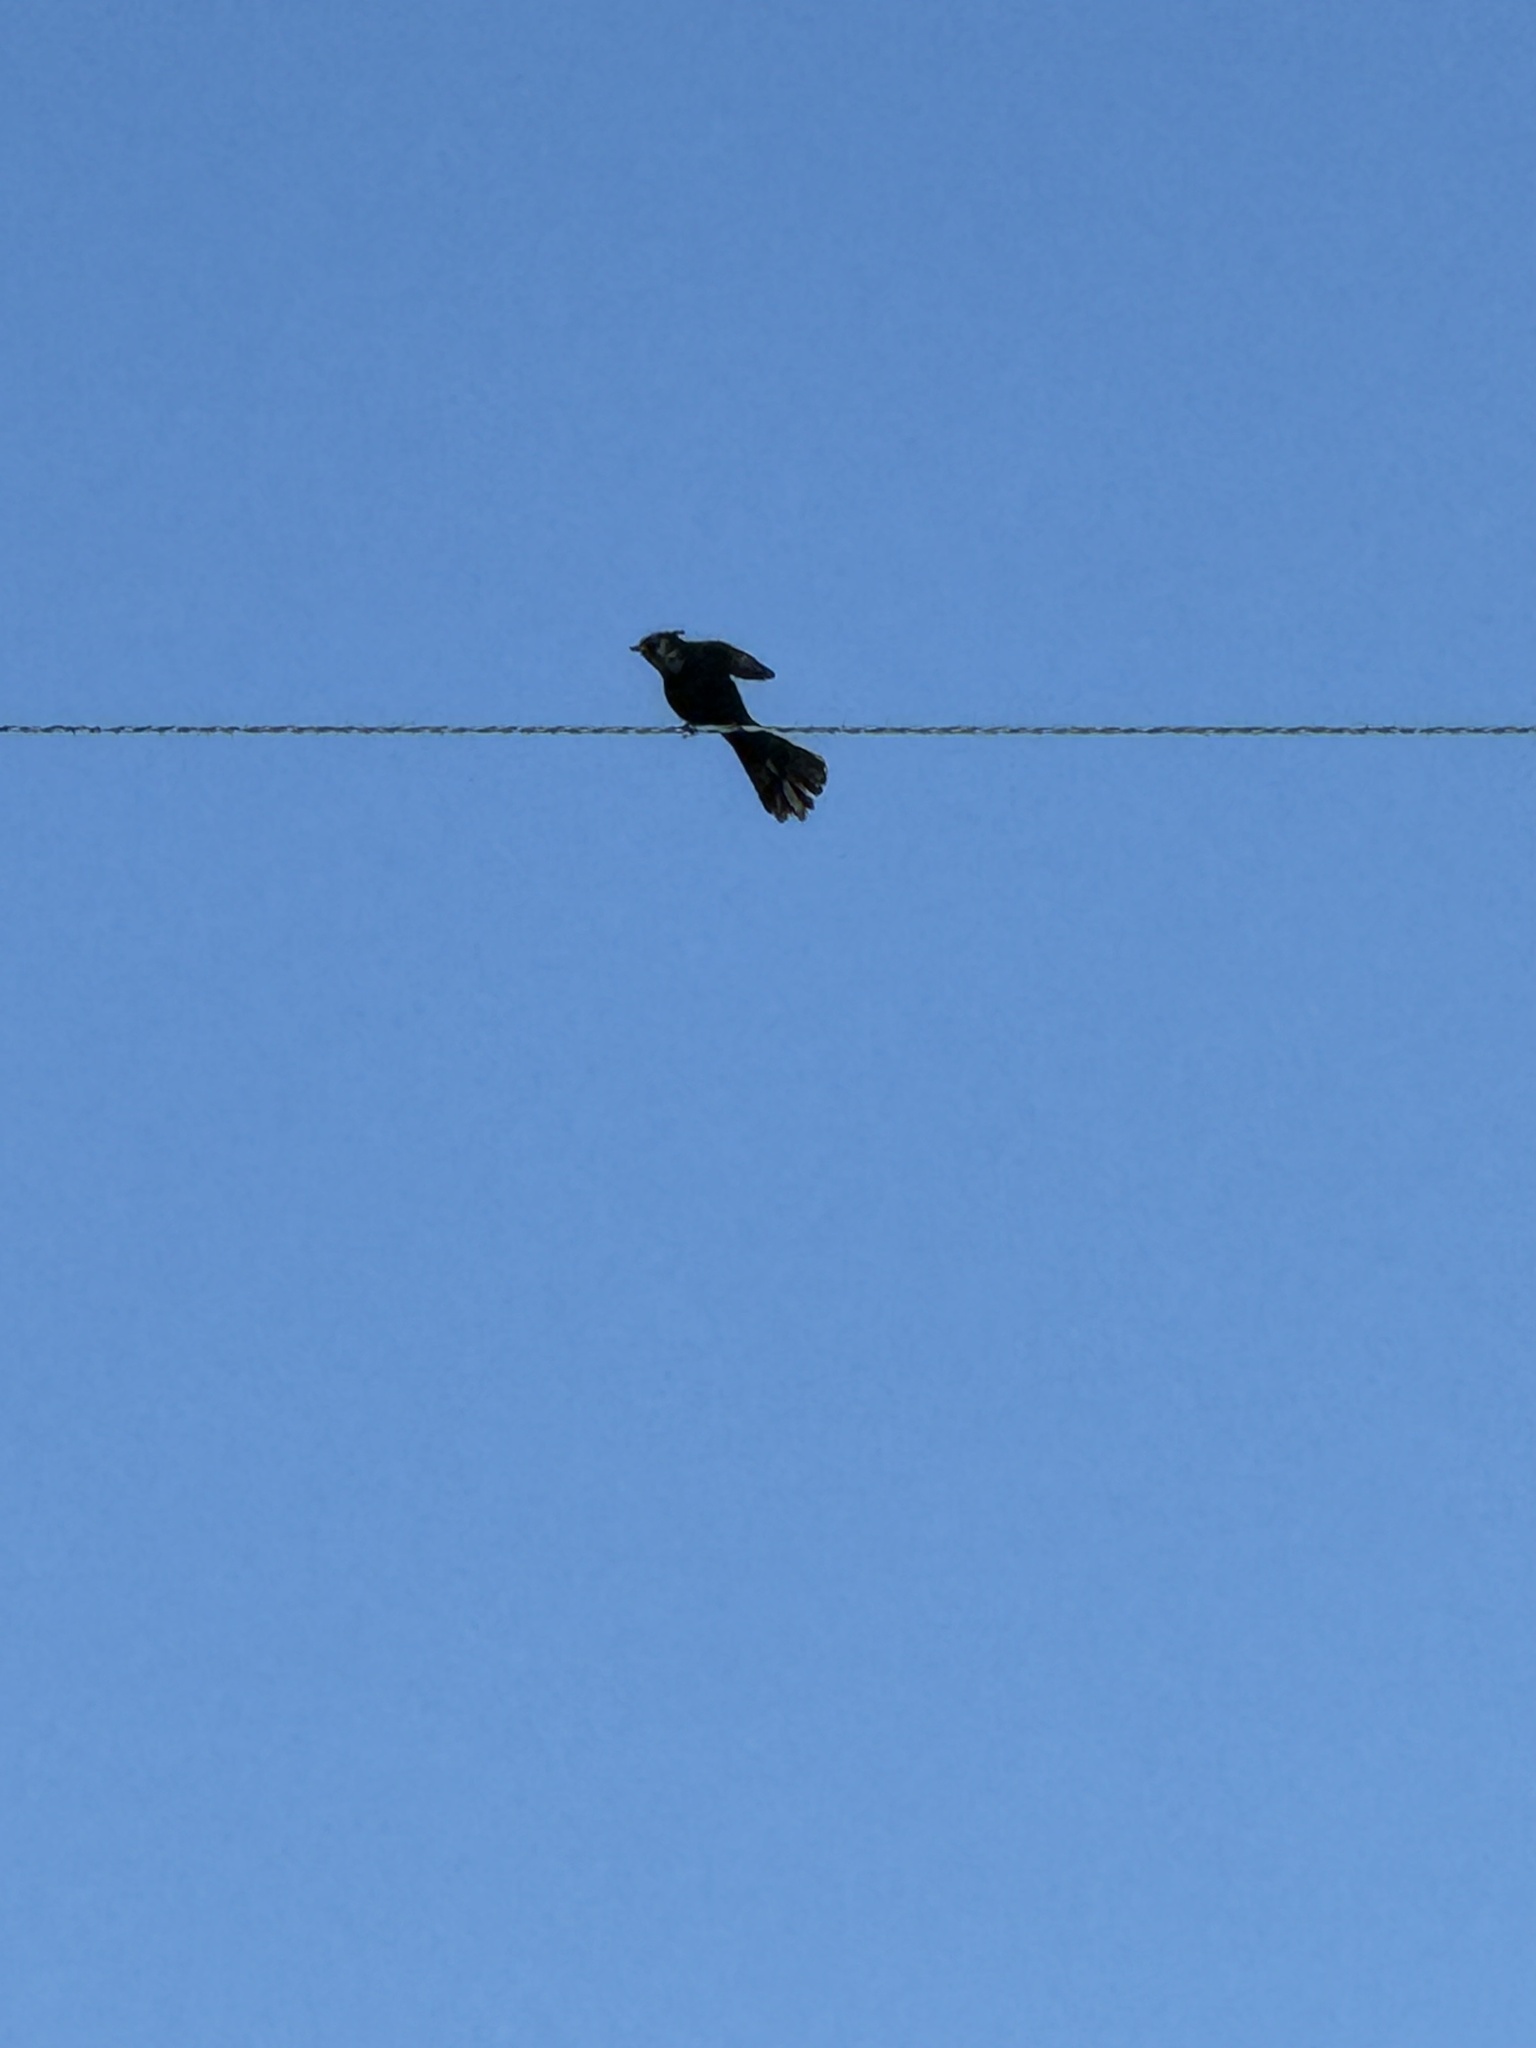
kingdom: Animalia
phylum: Chordata
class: Aves
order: Passeriformes
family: Ptilogonatidae
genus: Phainopepla
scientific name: Phainopepla nitens
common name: Phainopepla
